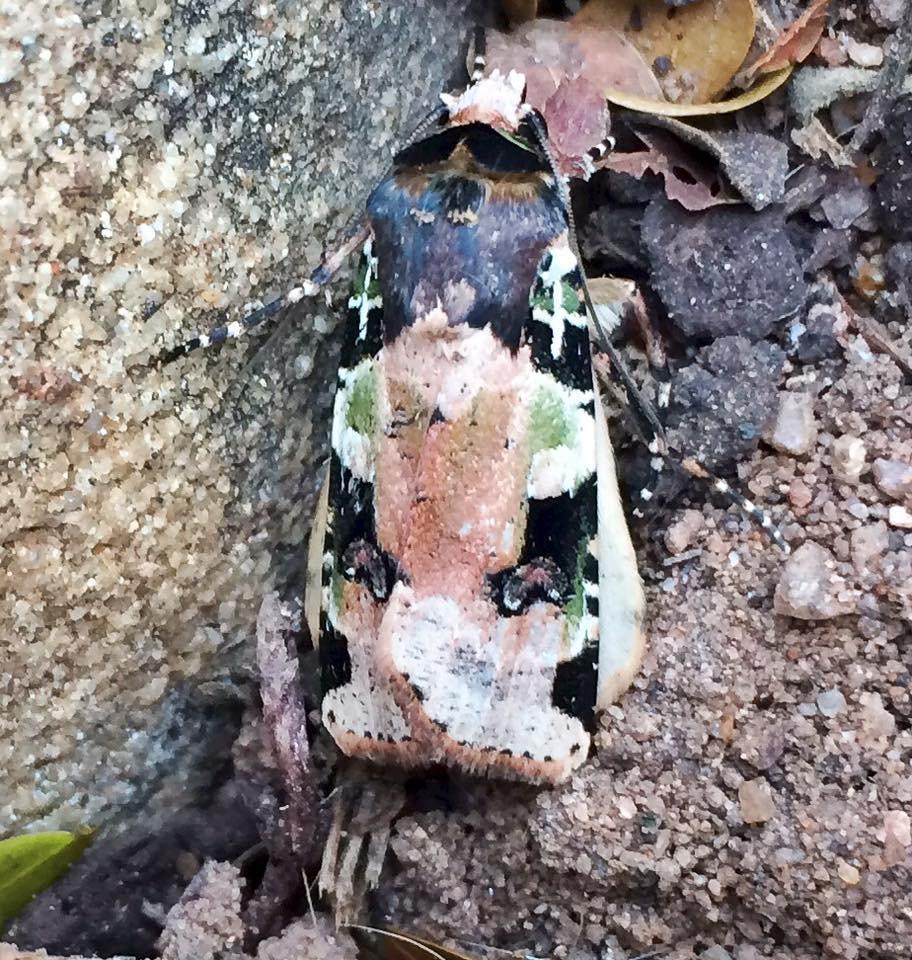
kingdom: Animalia
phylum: Arthropoda
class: Insecta
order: Lepidoptera
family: Noctuidae
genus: Mentaxya
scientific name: Mentaxya albifrons
